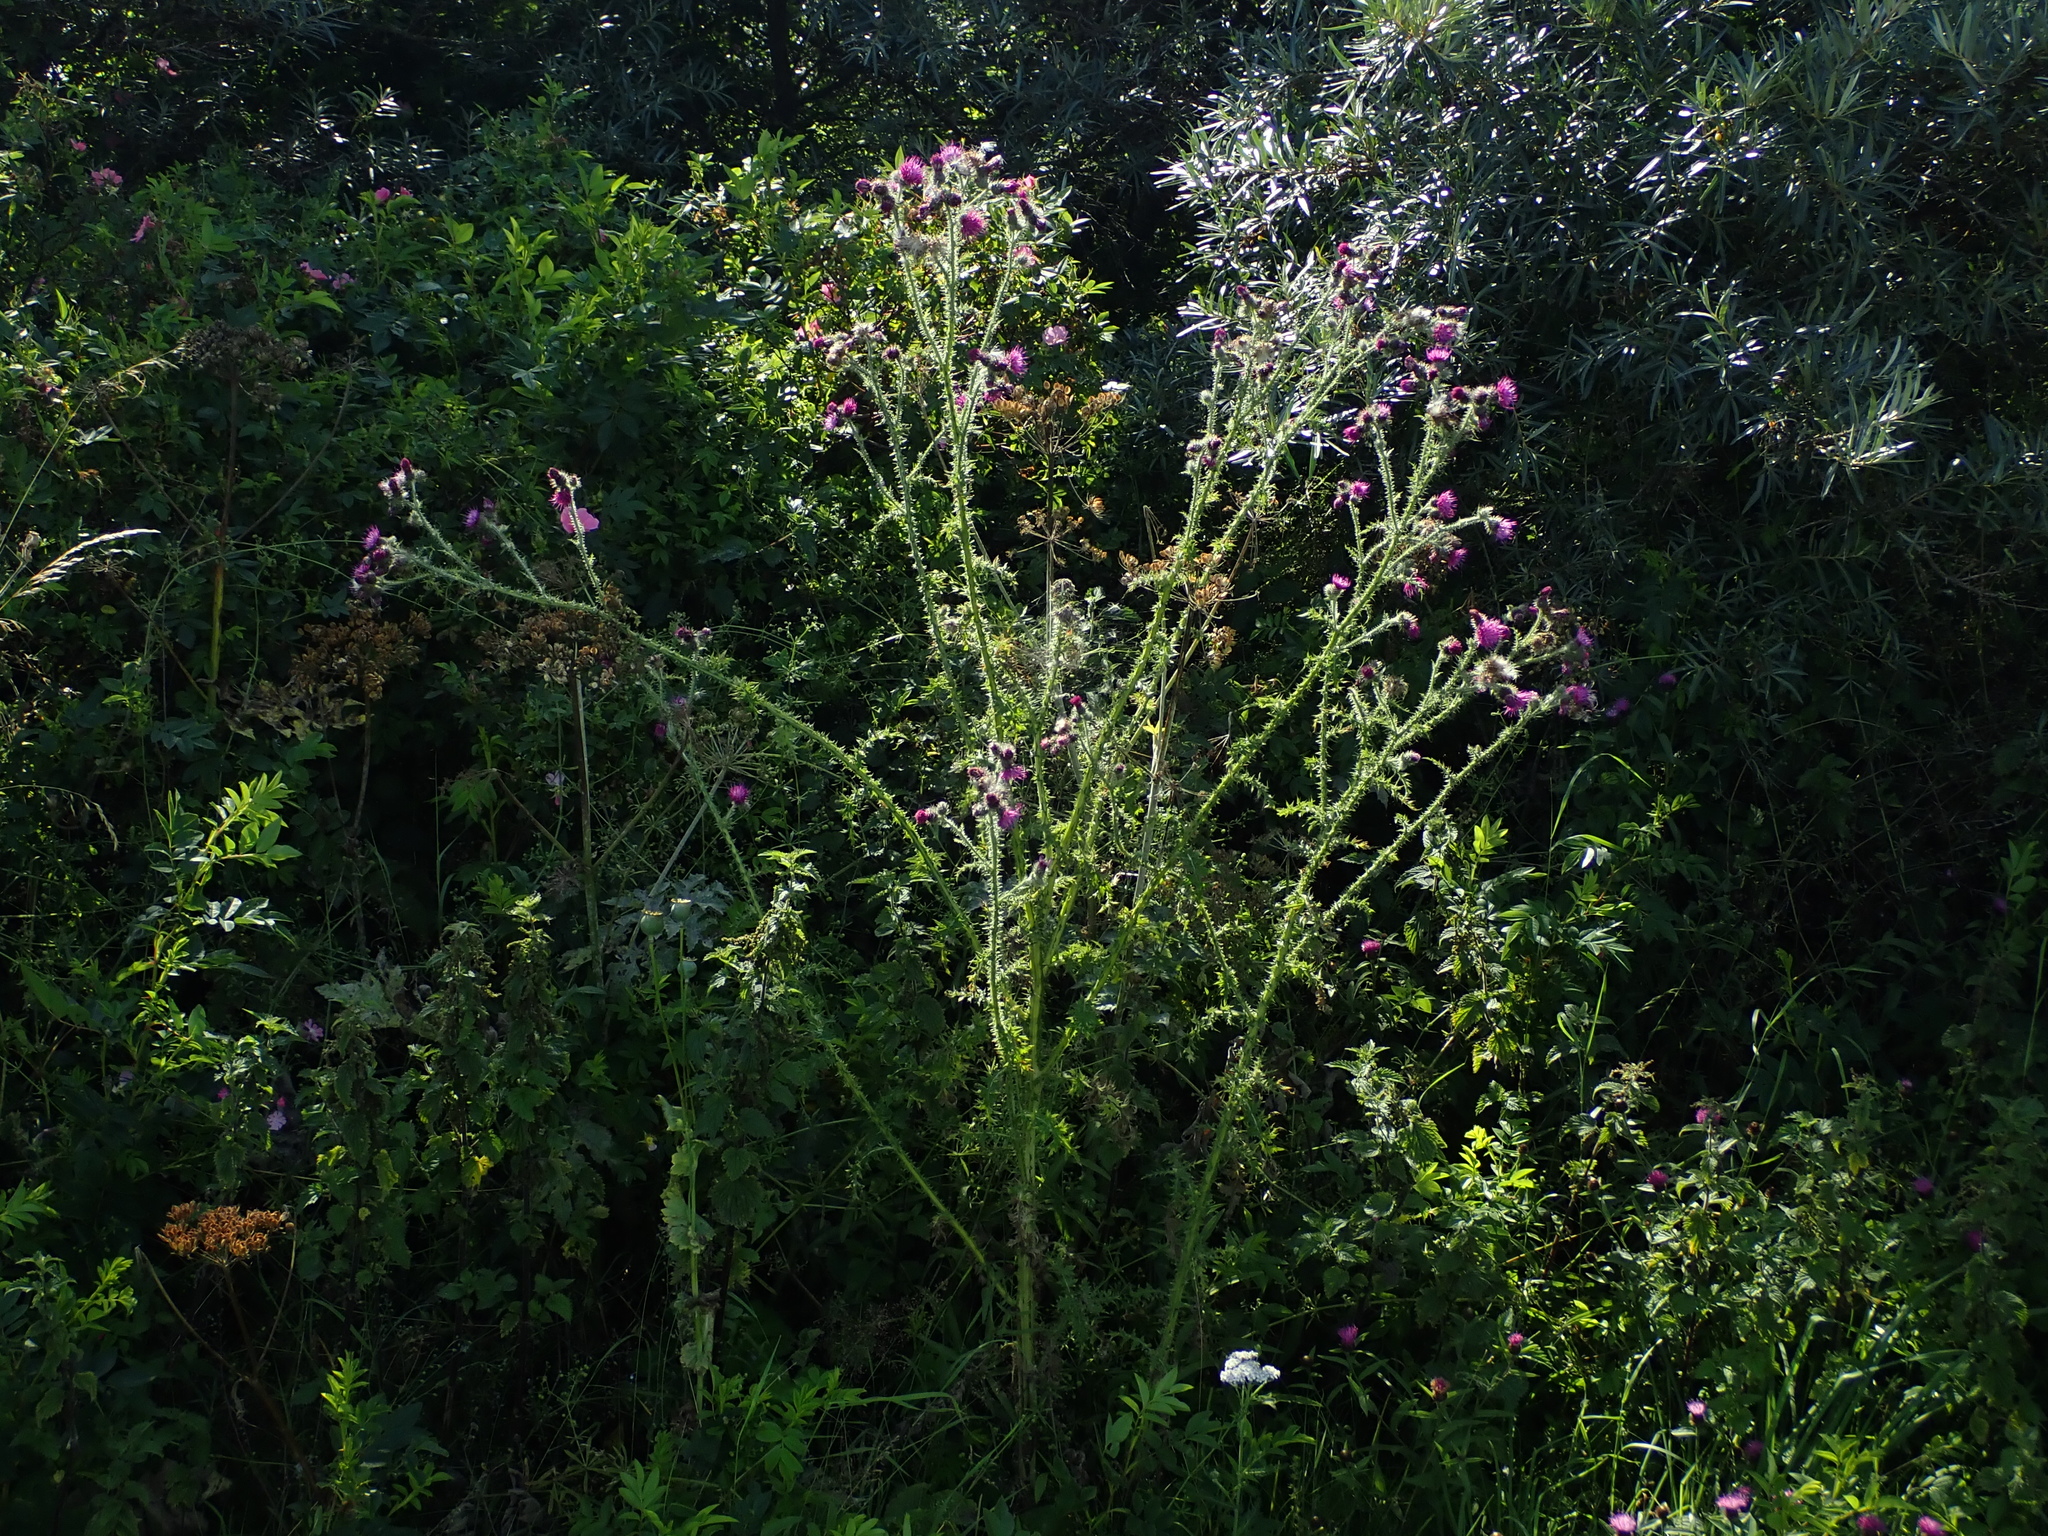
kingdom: Plantae
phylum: Tracheophyta
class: Magnoliopsida
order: Asterales
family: Asteraceae
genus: Carduus
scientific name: Carduus crispus
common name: Welted thistle
